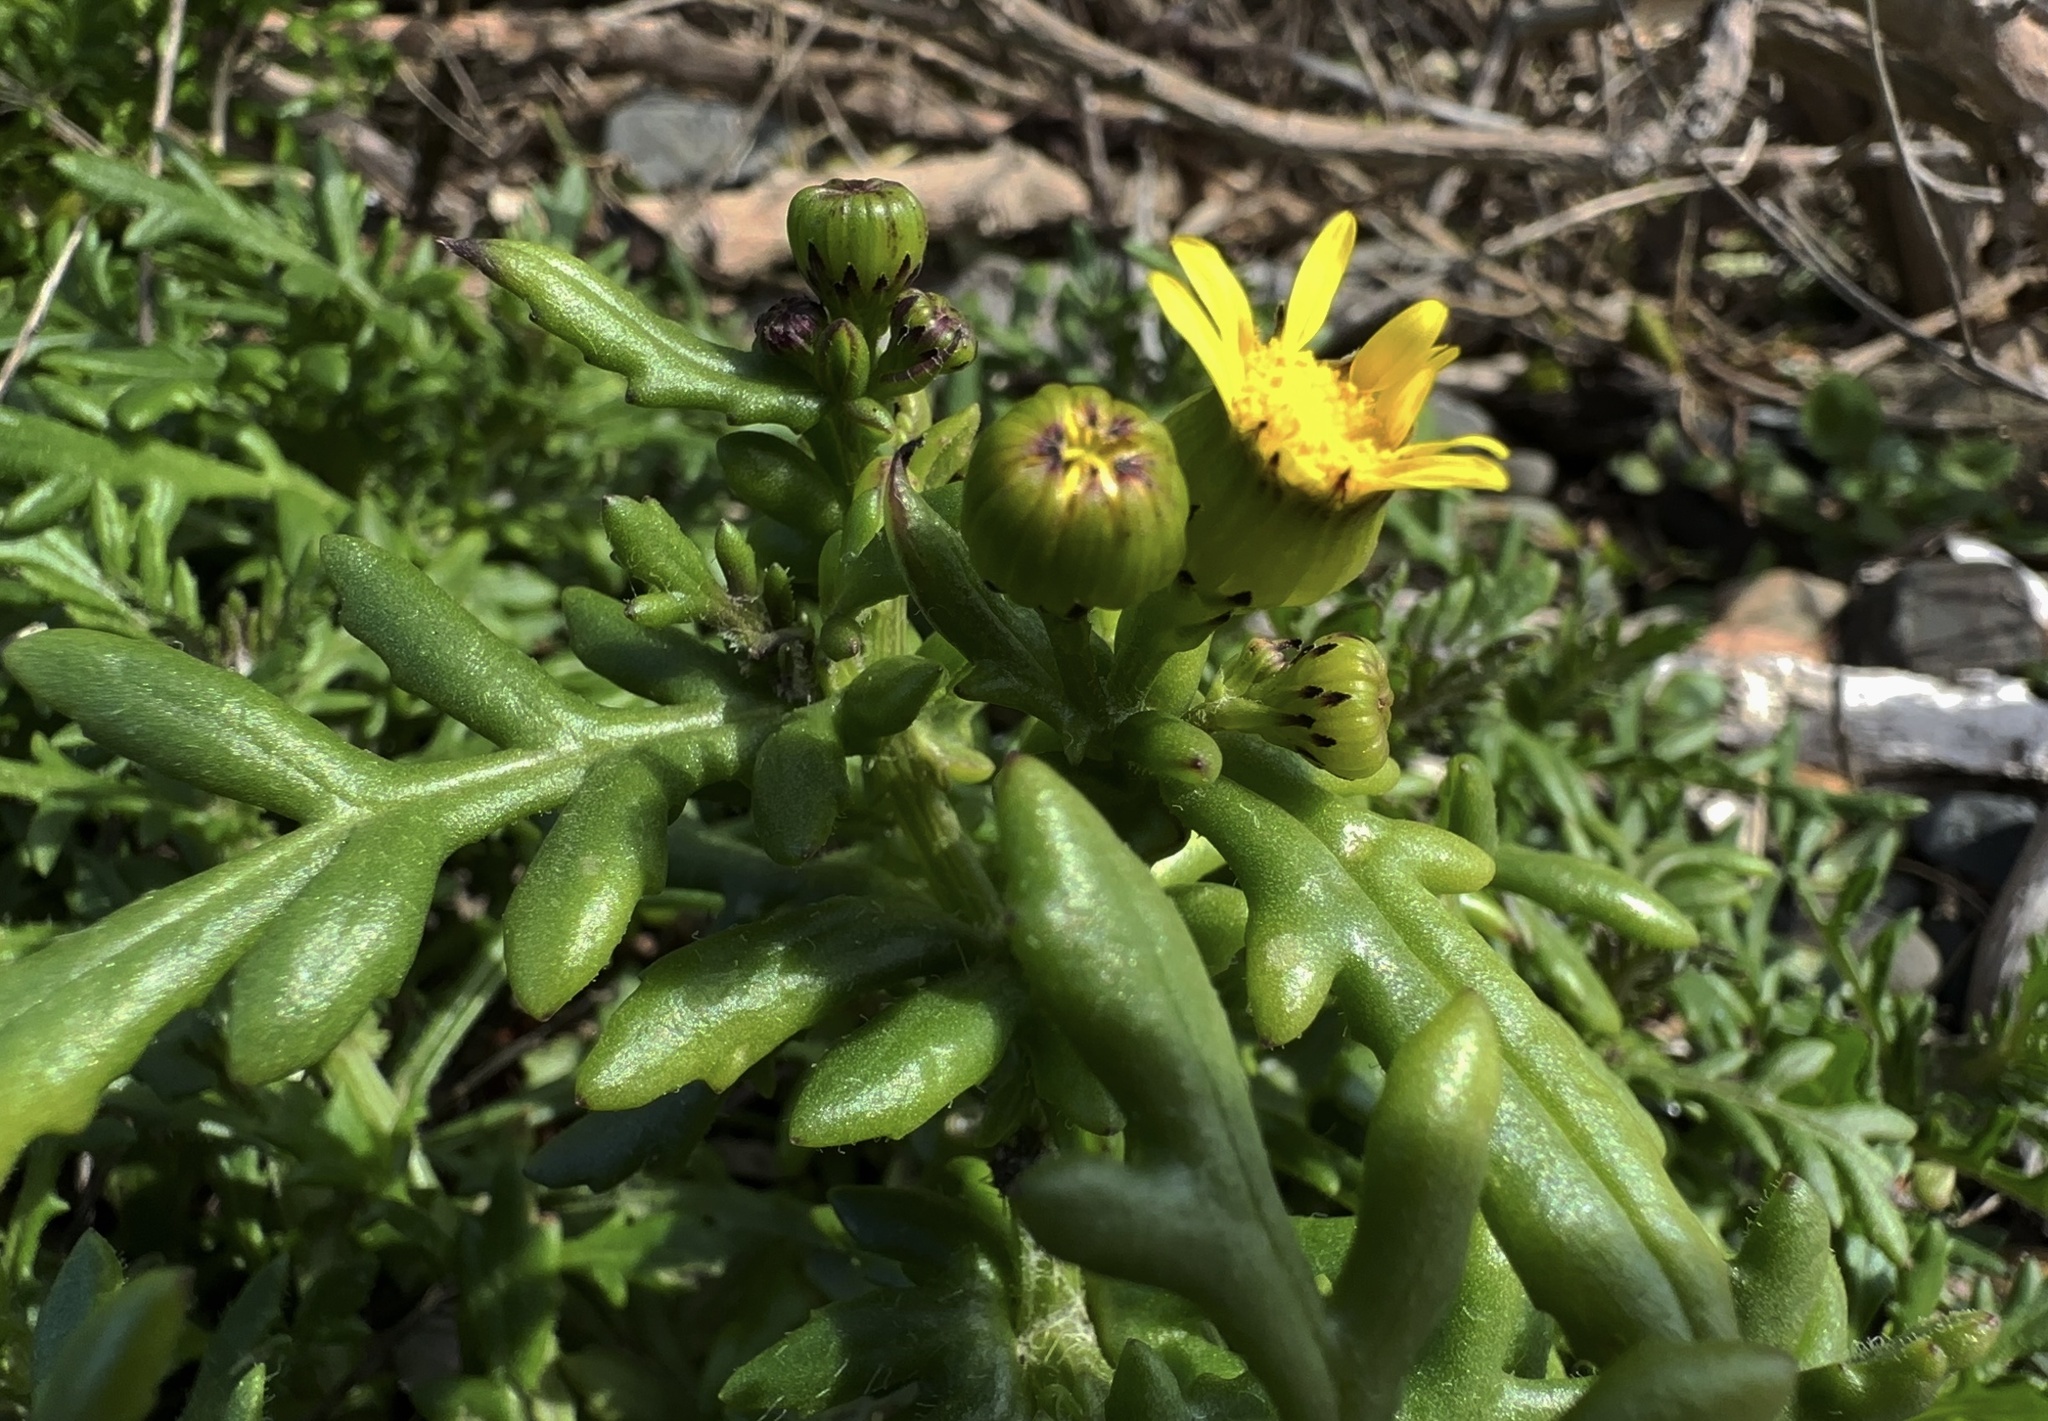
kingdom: Plantae
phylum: Tracheophyta
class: Magnoliopsida
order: Asterales
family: Asteraceae
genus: Senecio
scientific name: Senecio lautus
